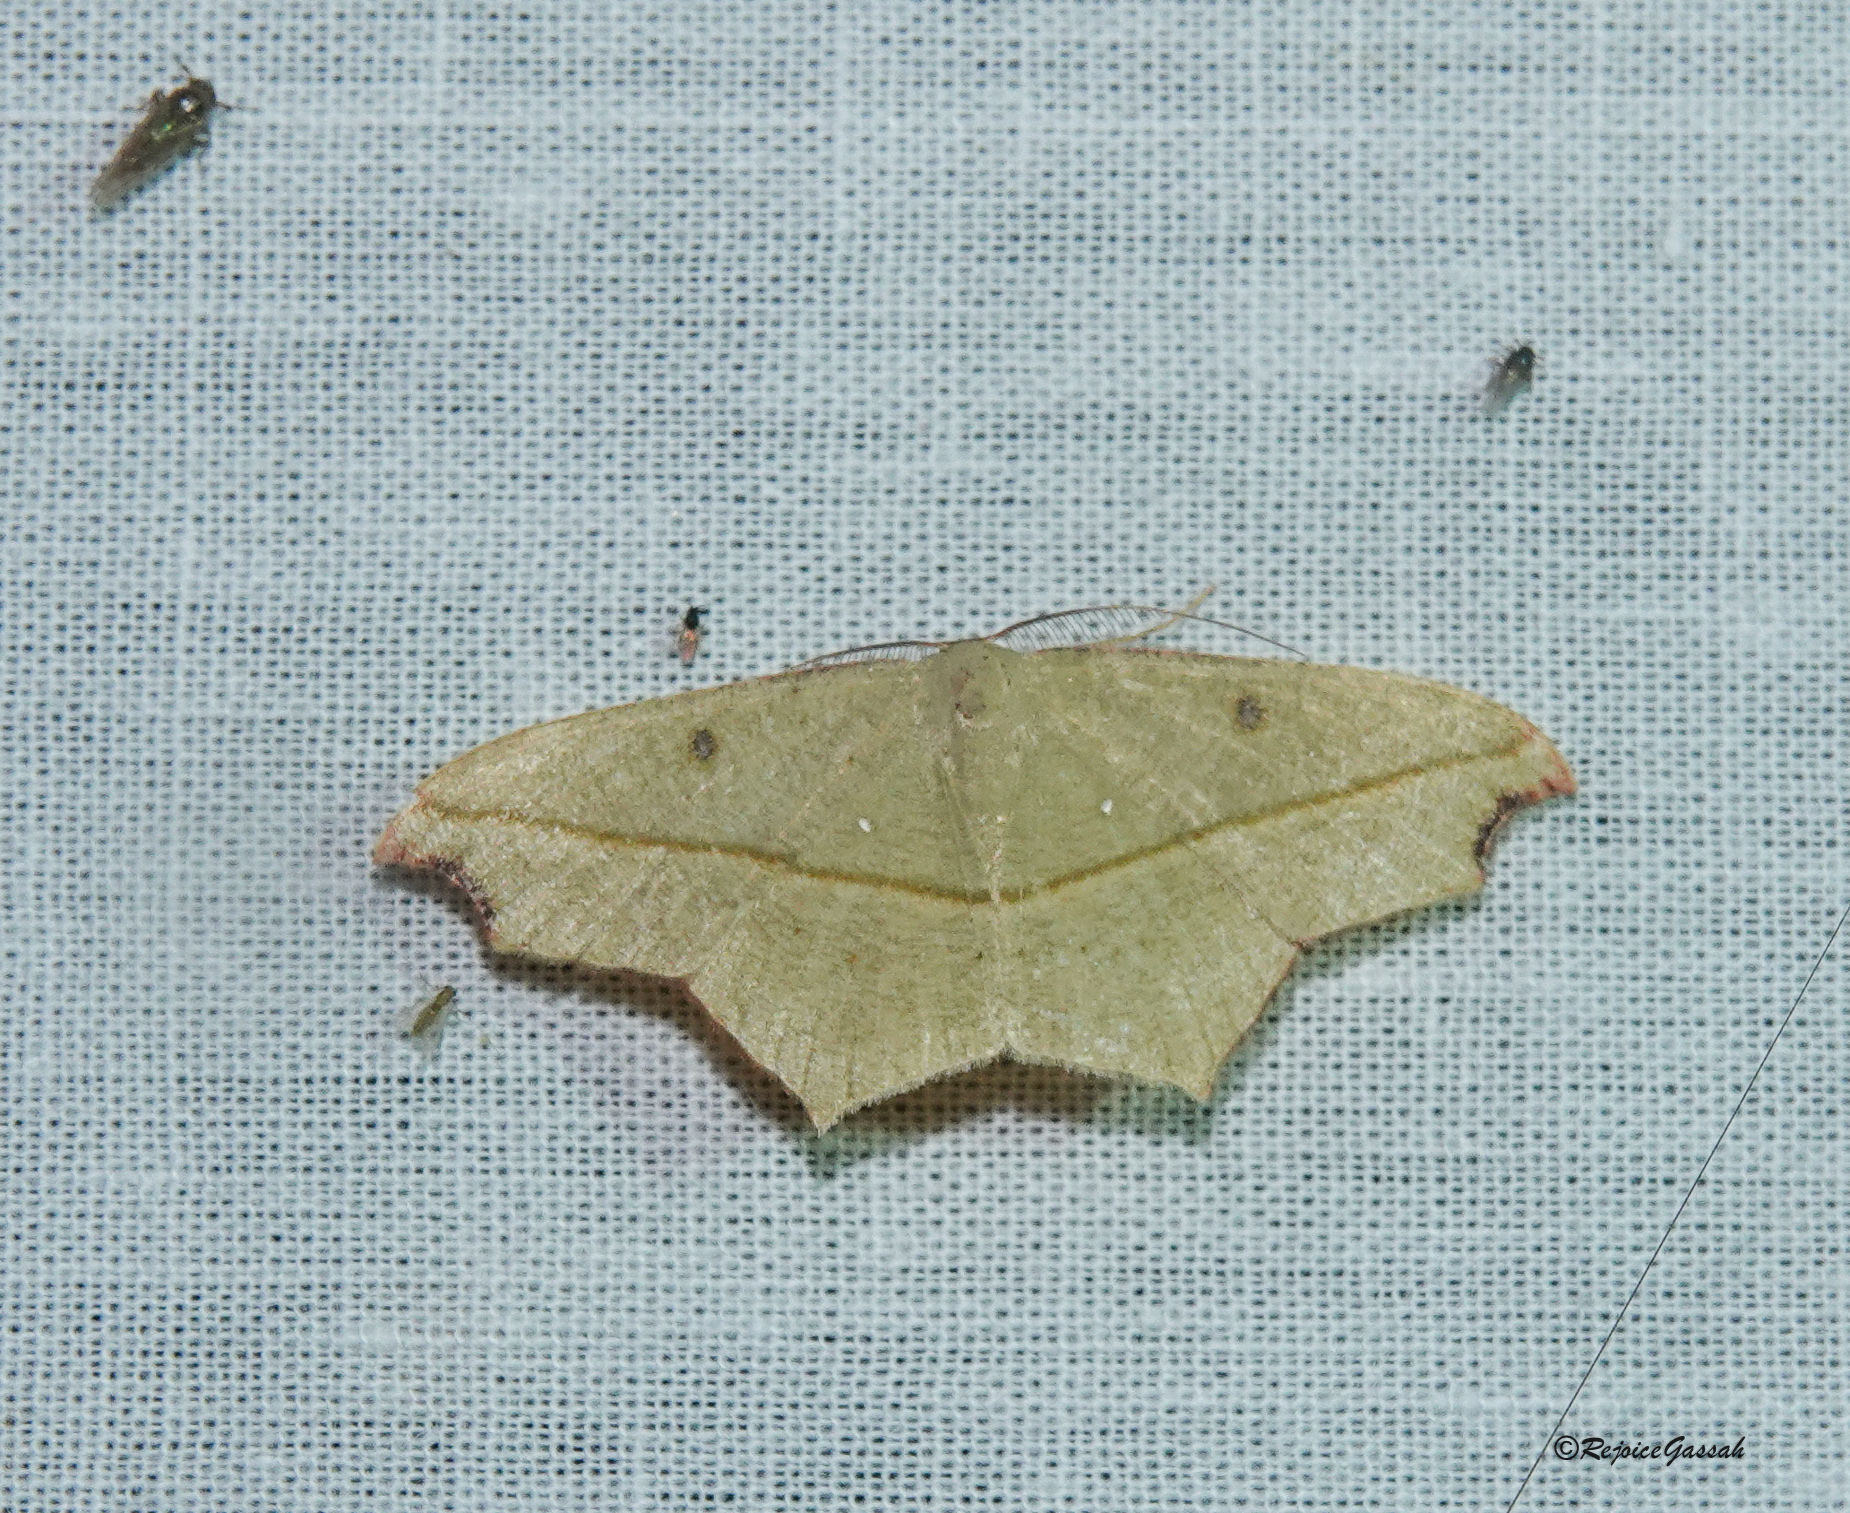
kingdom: Animalia
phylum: Arthropoda
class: Insecta
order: Lepidoptera
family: Geometridae
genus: Traminda
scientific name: Traminda aventiaria
